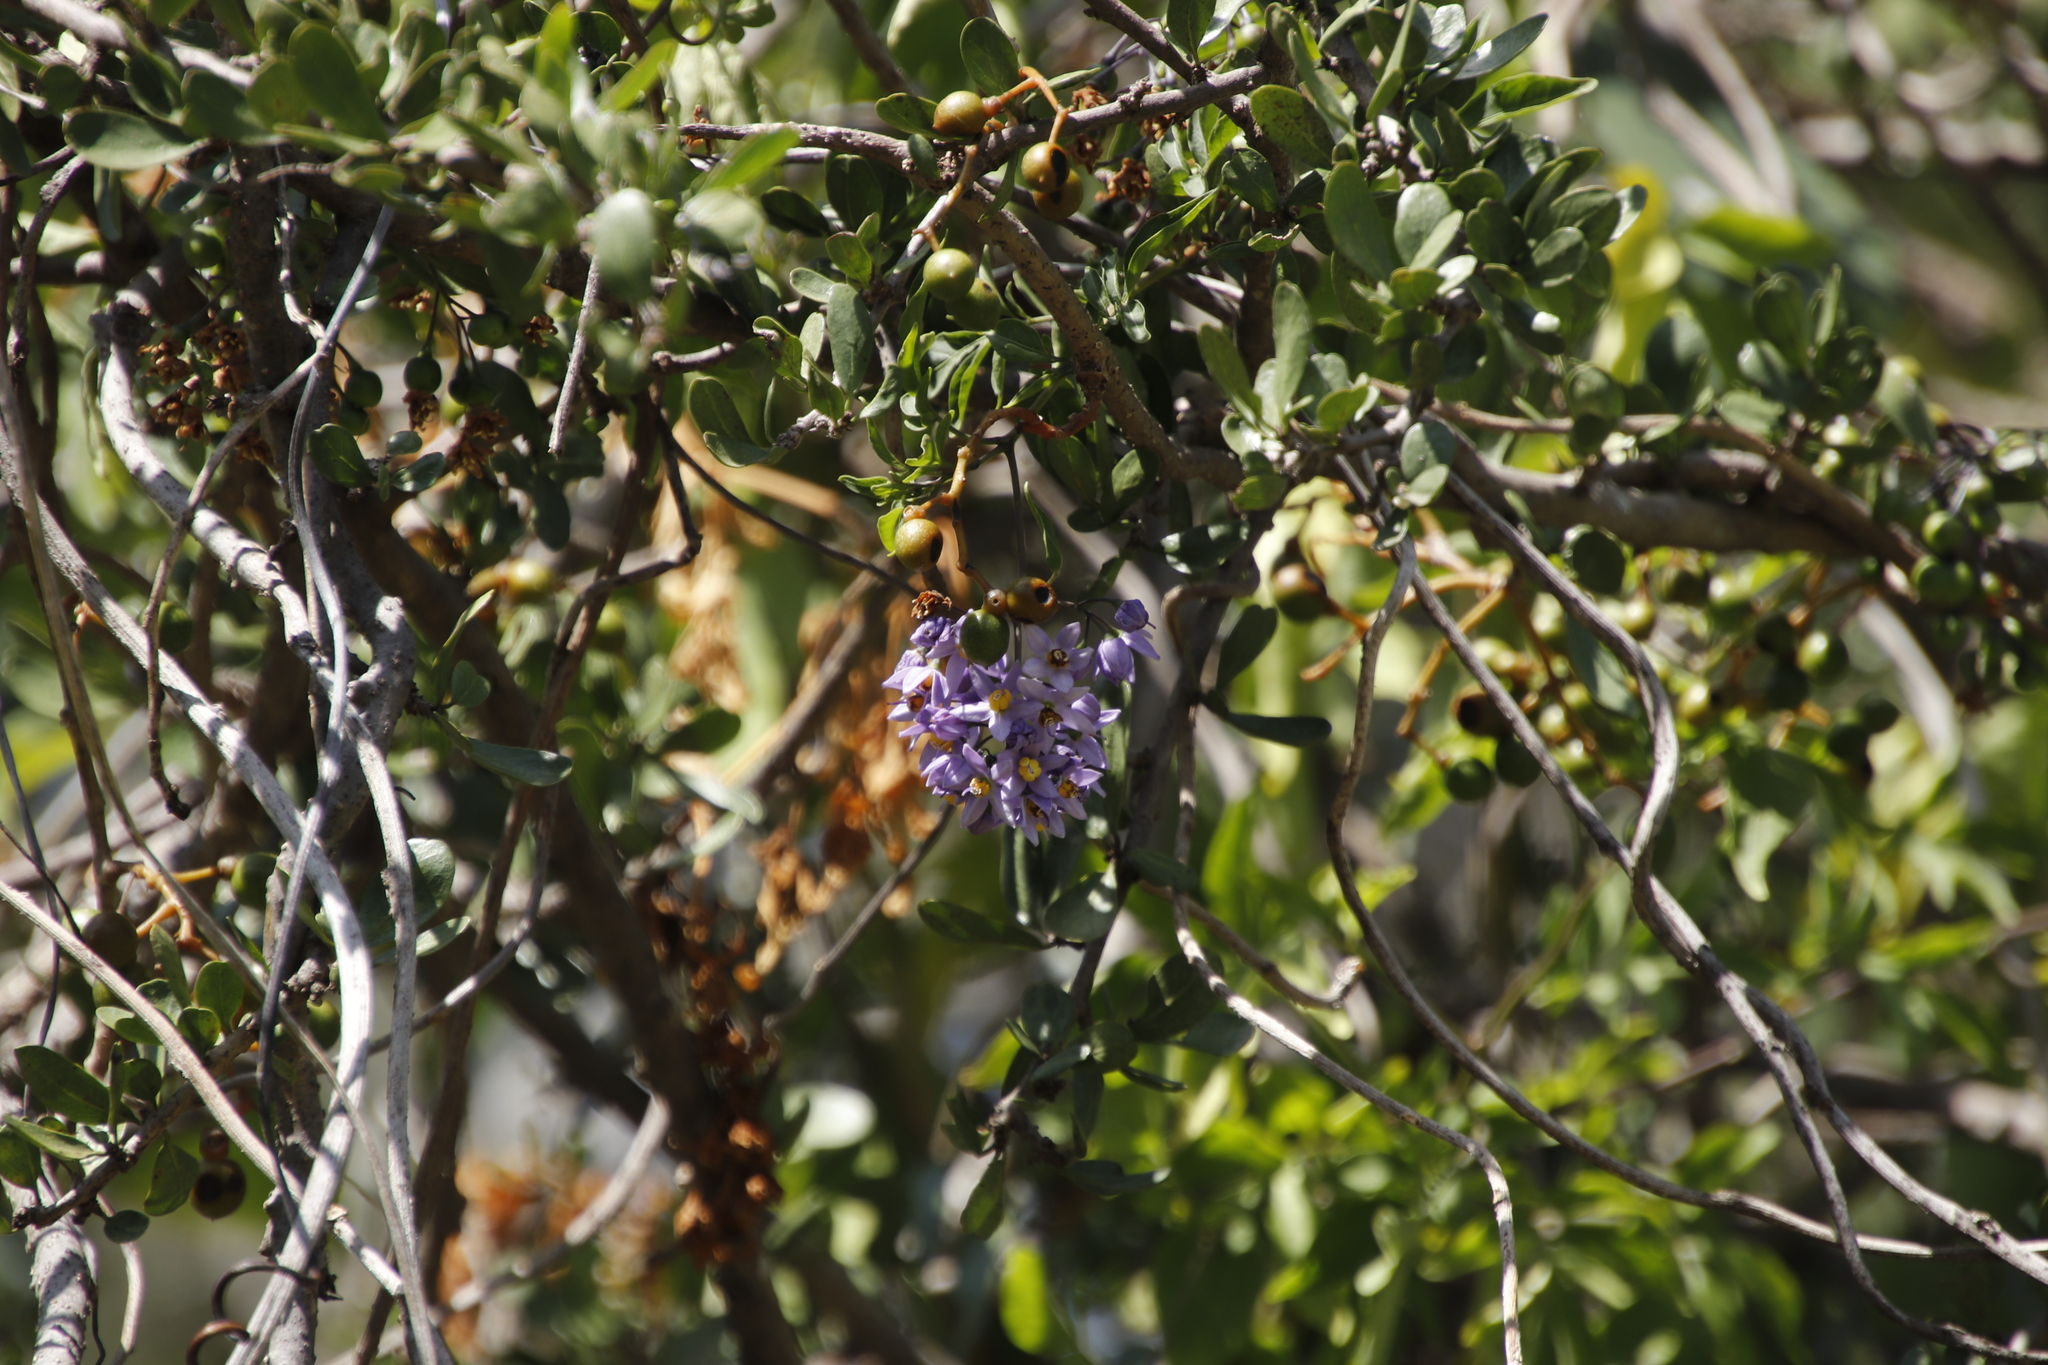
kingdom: Plantae
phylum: Tracheophyta
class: Magnoliopsida
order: Solanales
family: Solanaceae
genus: Solanum
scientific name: Solanum seaforthianum
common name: Brazilian nightshade
